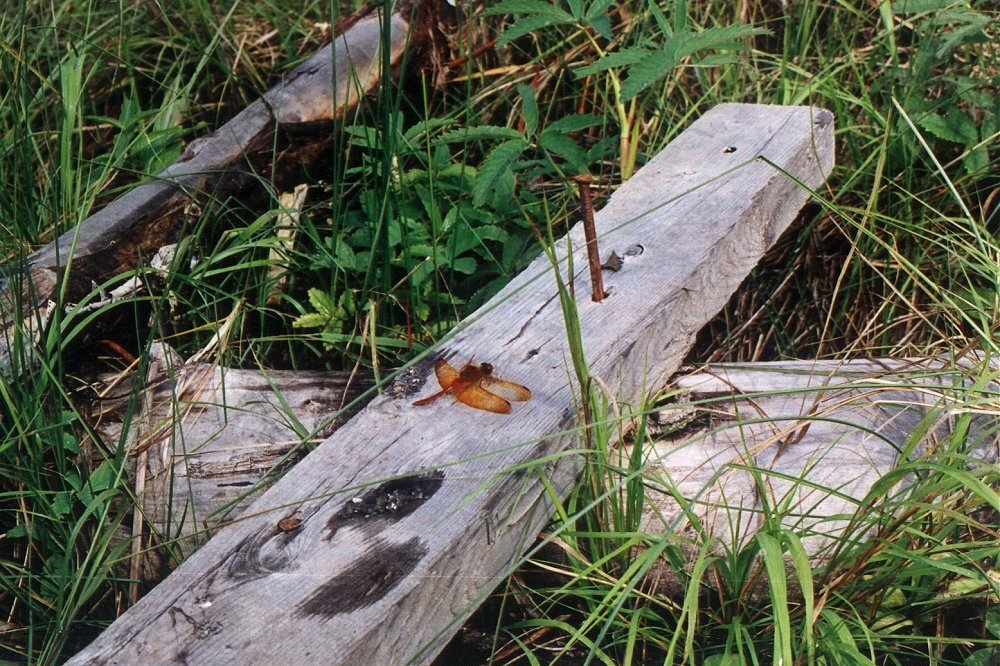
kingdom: Animalia
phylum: Arthropoda
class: Insecta
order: Odonata
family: Libellulidae
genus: Sympetrum
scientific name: Sympetrum croceolum
